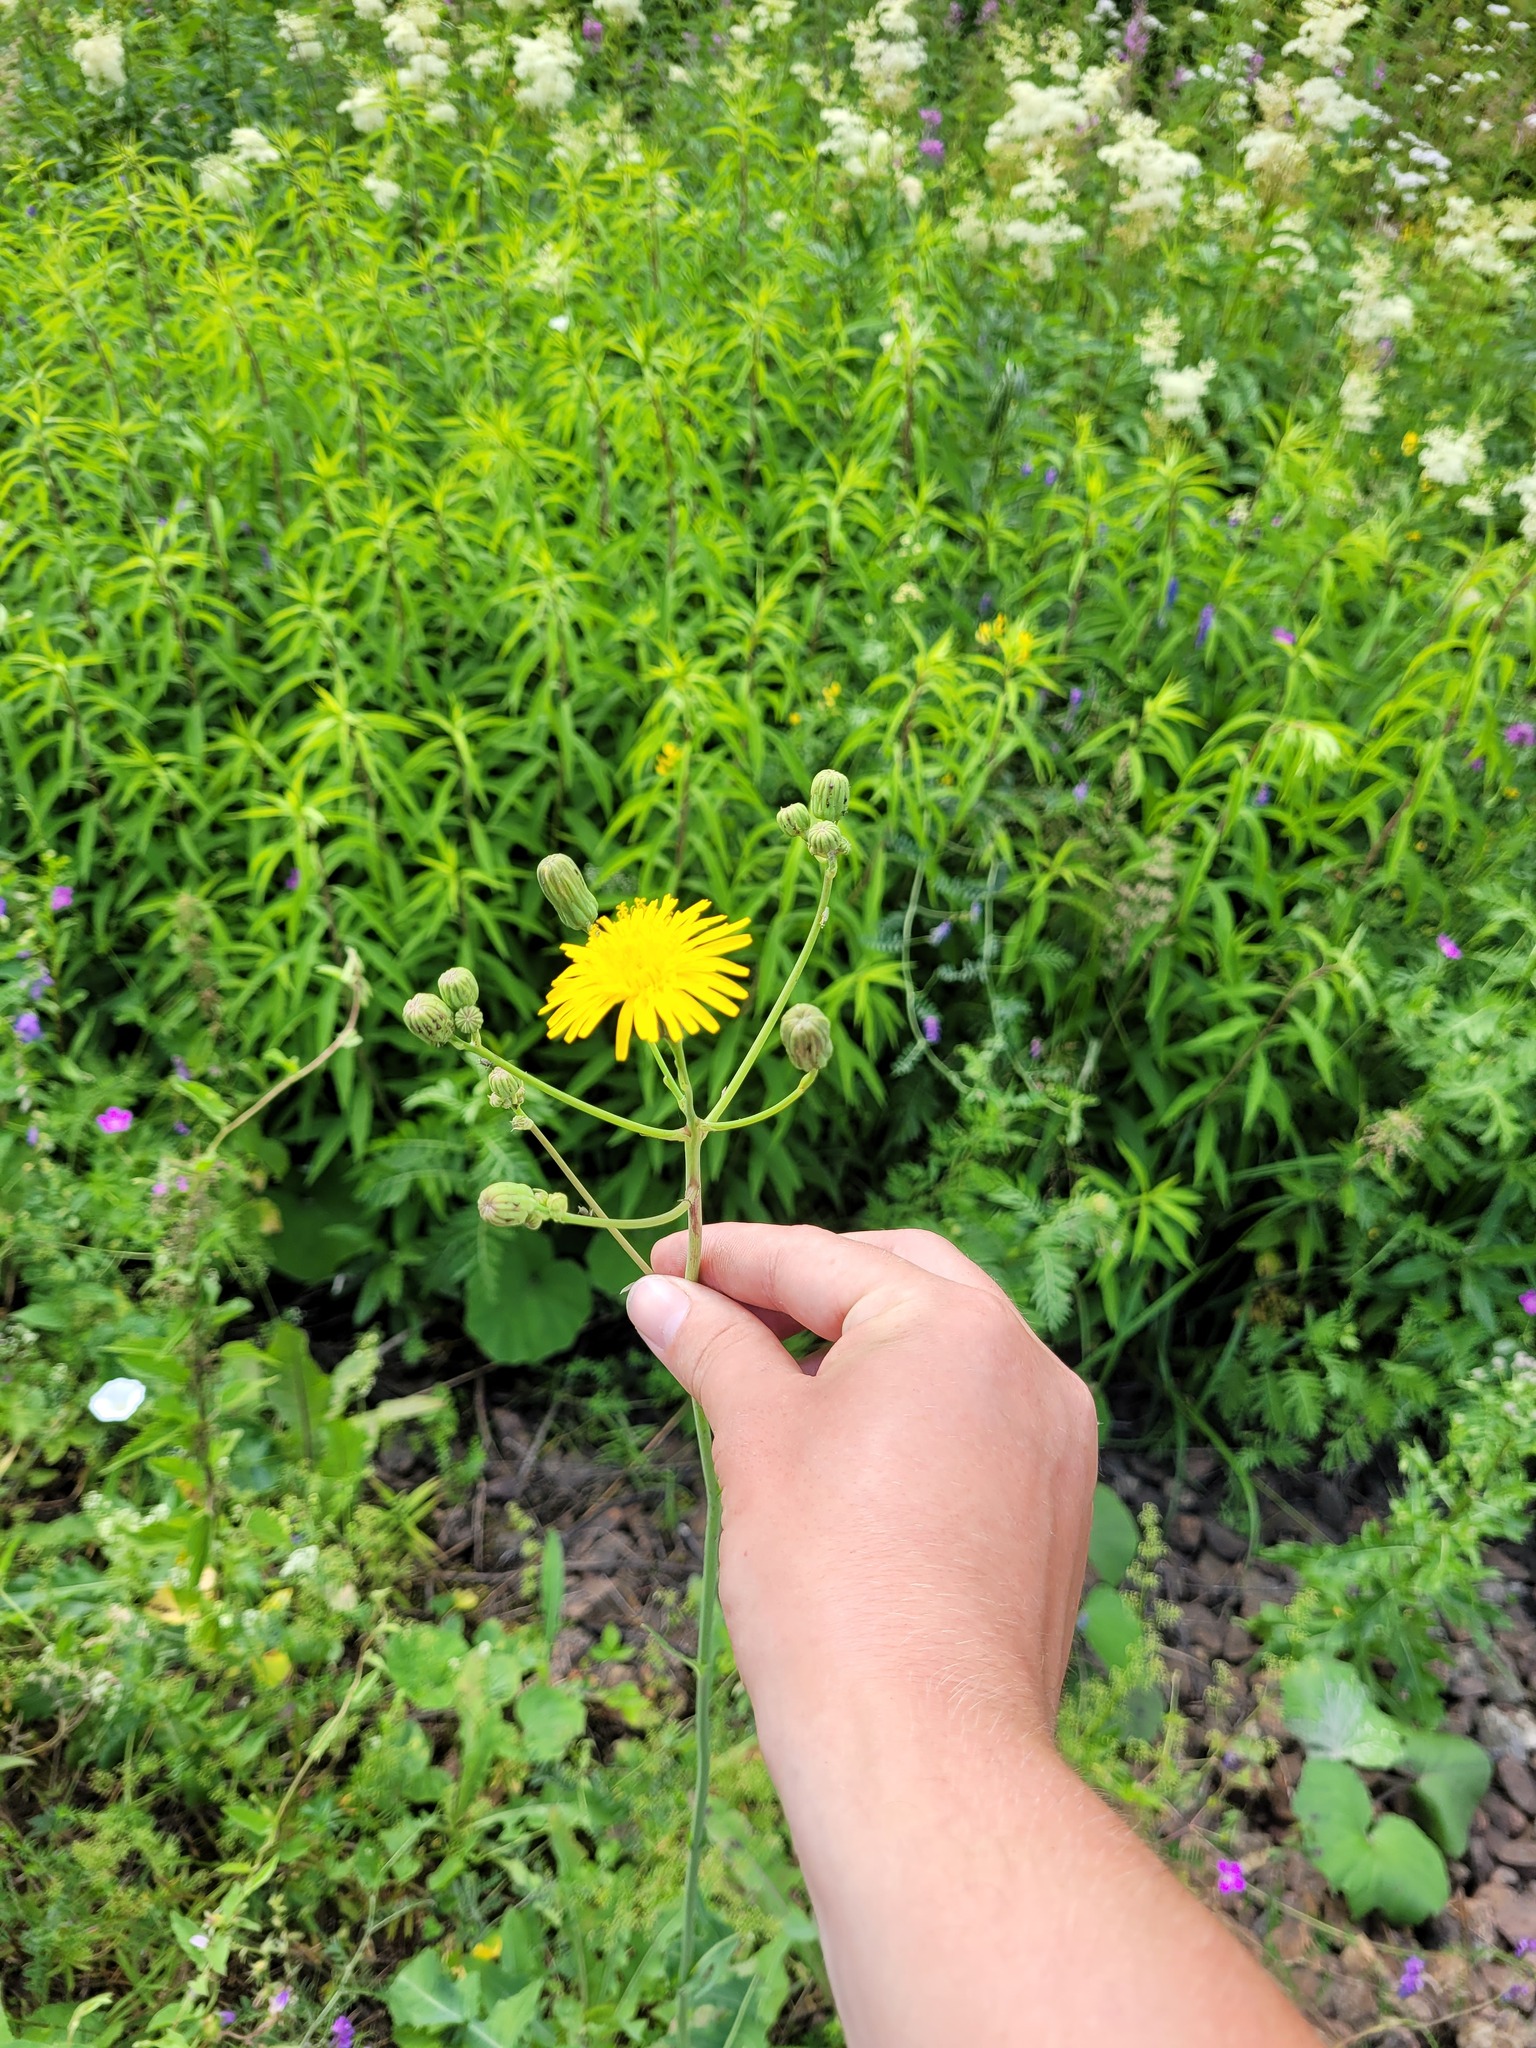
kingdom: Plantae
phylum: Tracheophyta
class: Magnoliopsida
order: Asterales
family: Asteraceae
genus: Sonchus
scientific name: Sonchus arvensis
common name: Perennial sow-thistle
